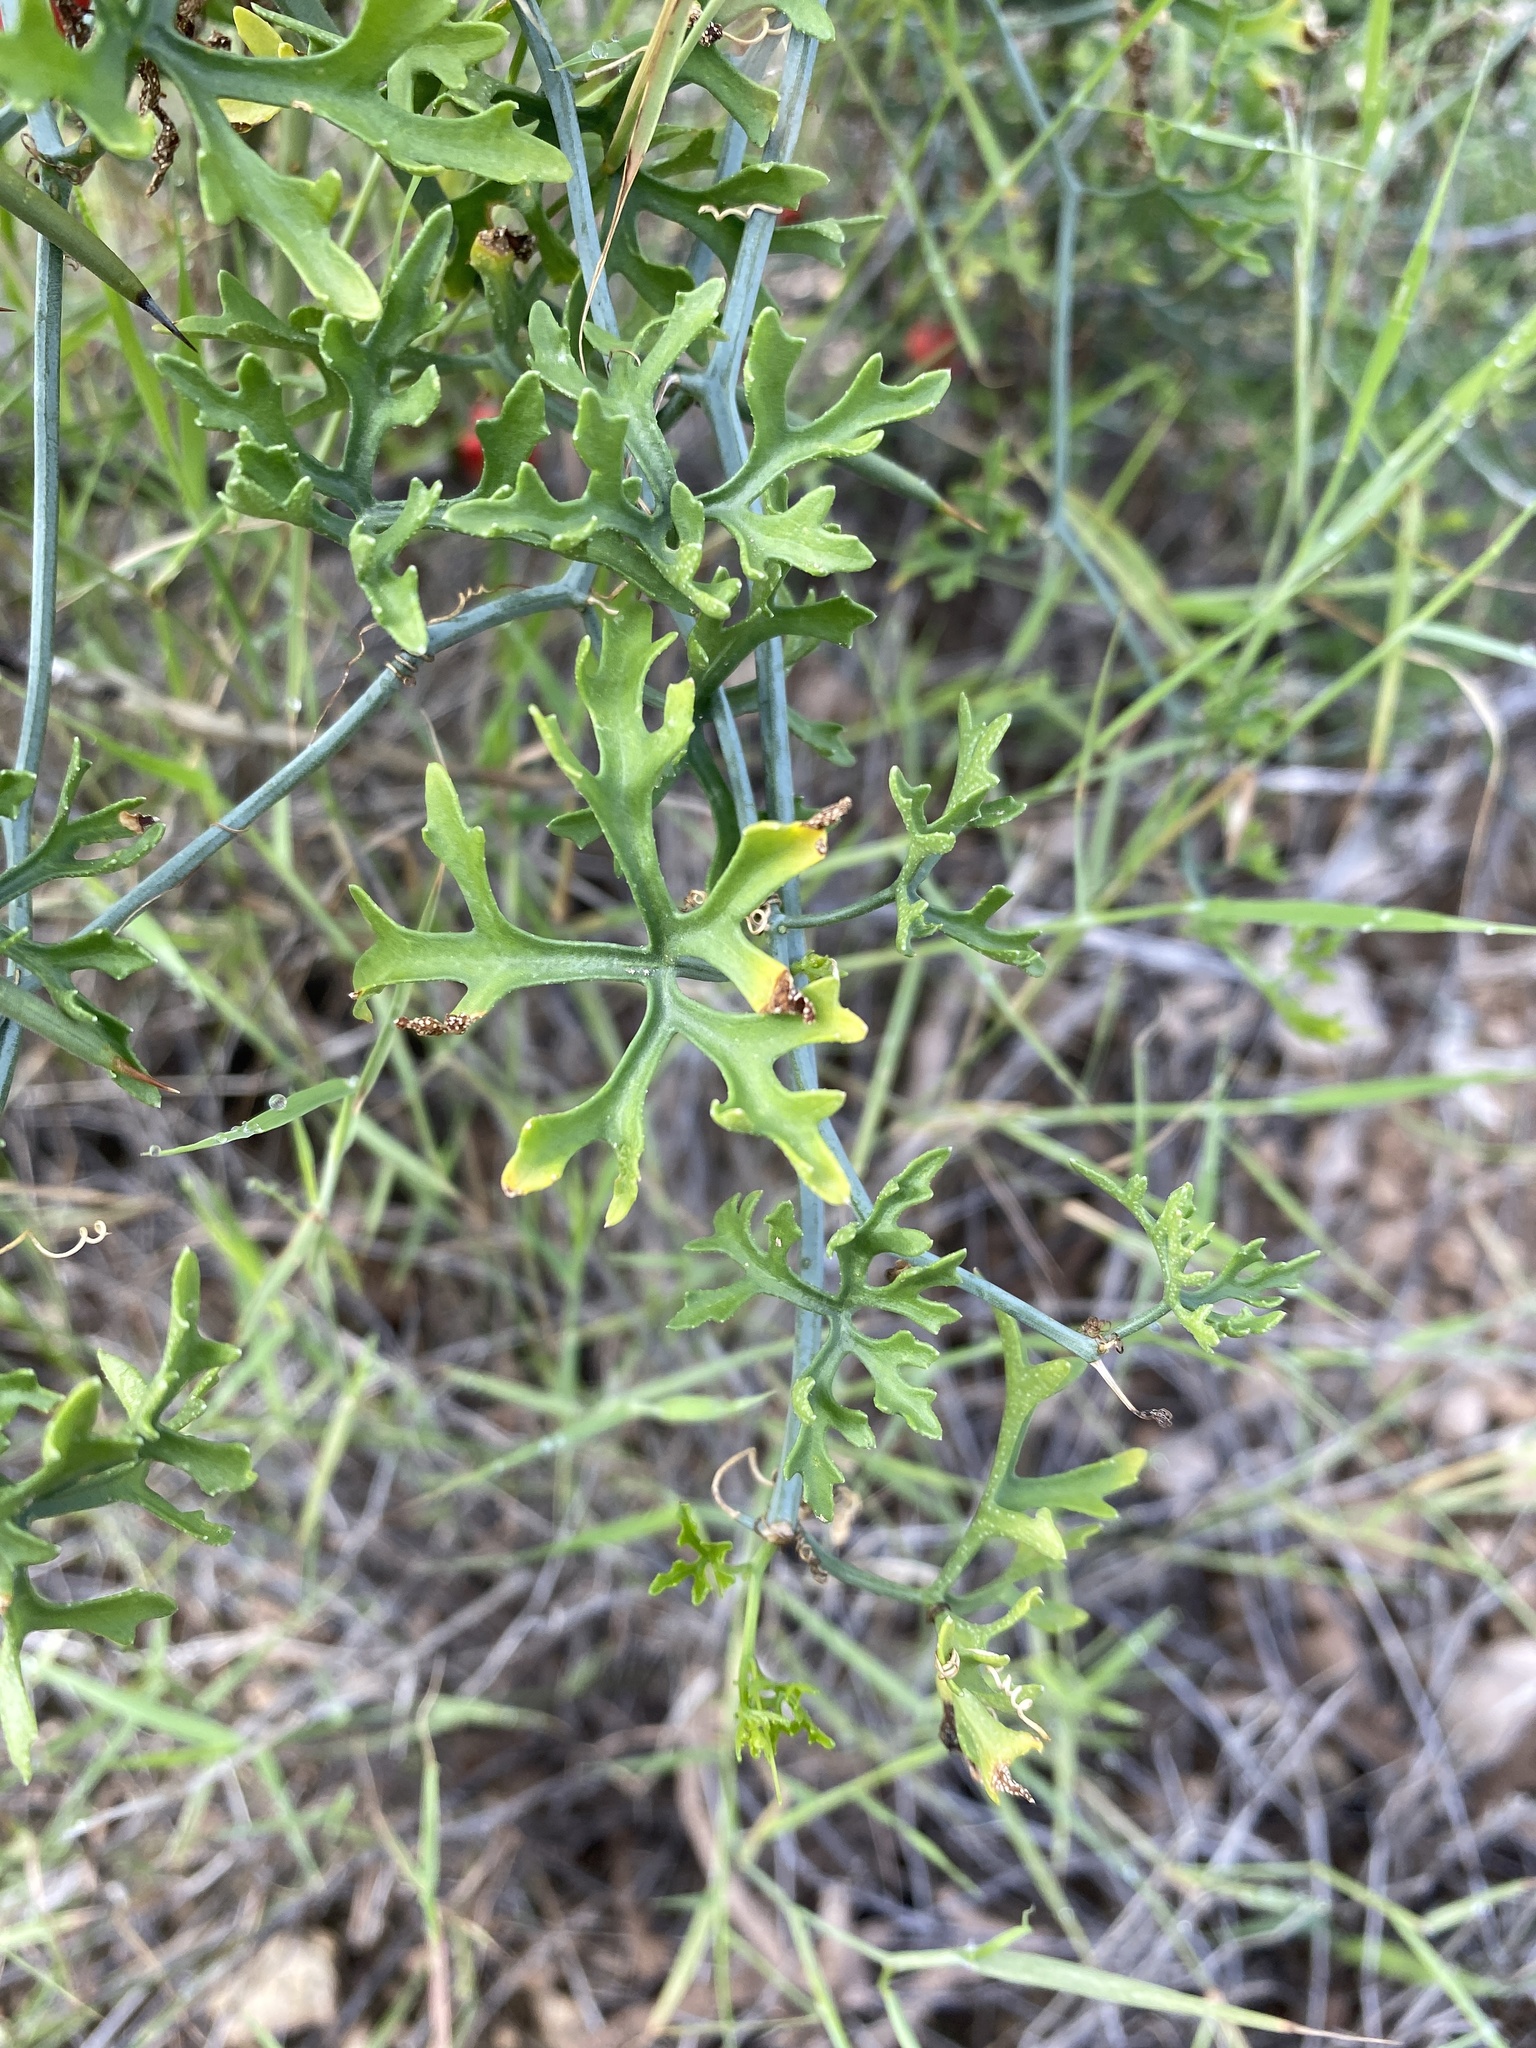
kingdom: Plantae
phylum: Tracheophyta
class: Magnoliopsida
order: Cucurbitales
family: Cucurbitaceae
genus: Ibervillea
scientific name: Ibervillea tenuisecta
